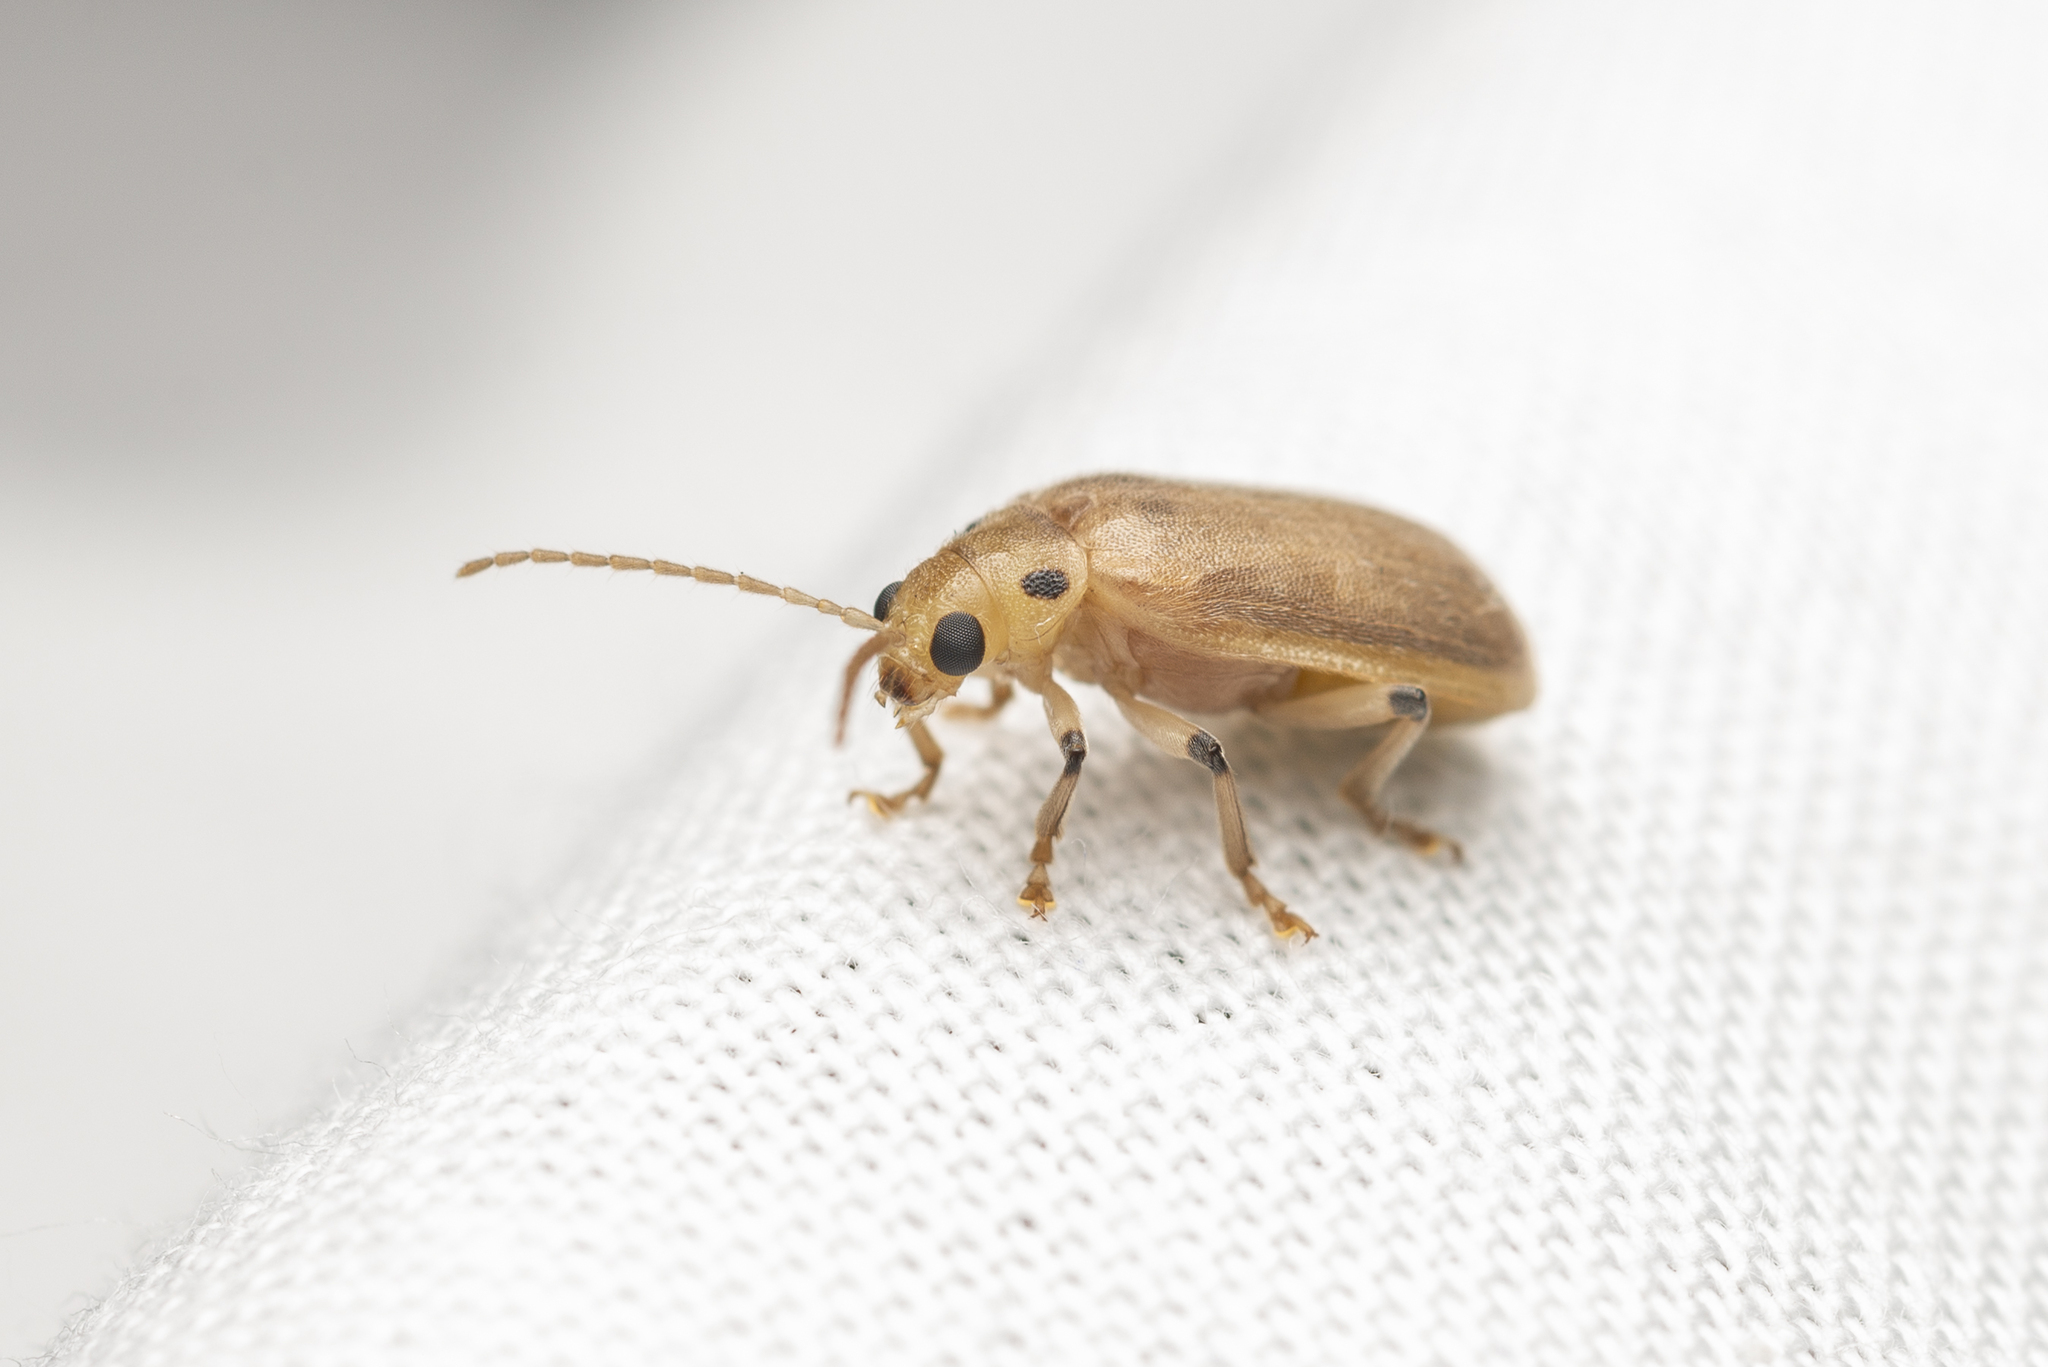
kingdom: Animalia
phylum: Arthropoda
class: Insecta
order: Coleoptera
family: Chrysomelidae
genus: Pyrrhalta
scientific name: Pyrrhalta
